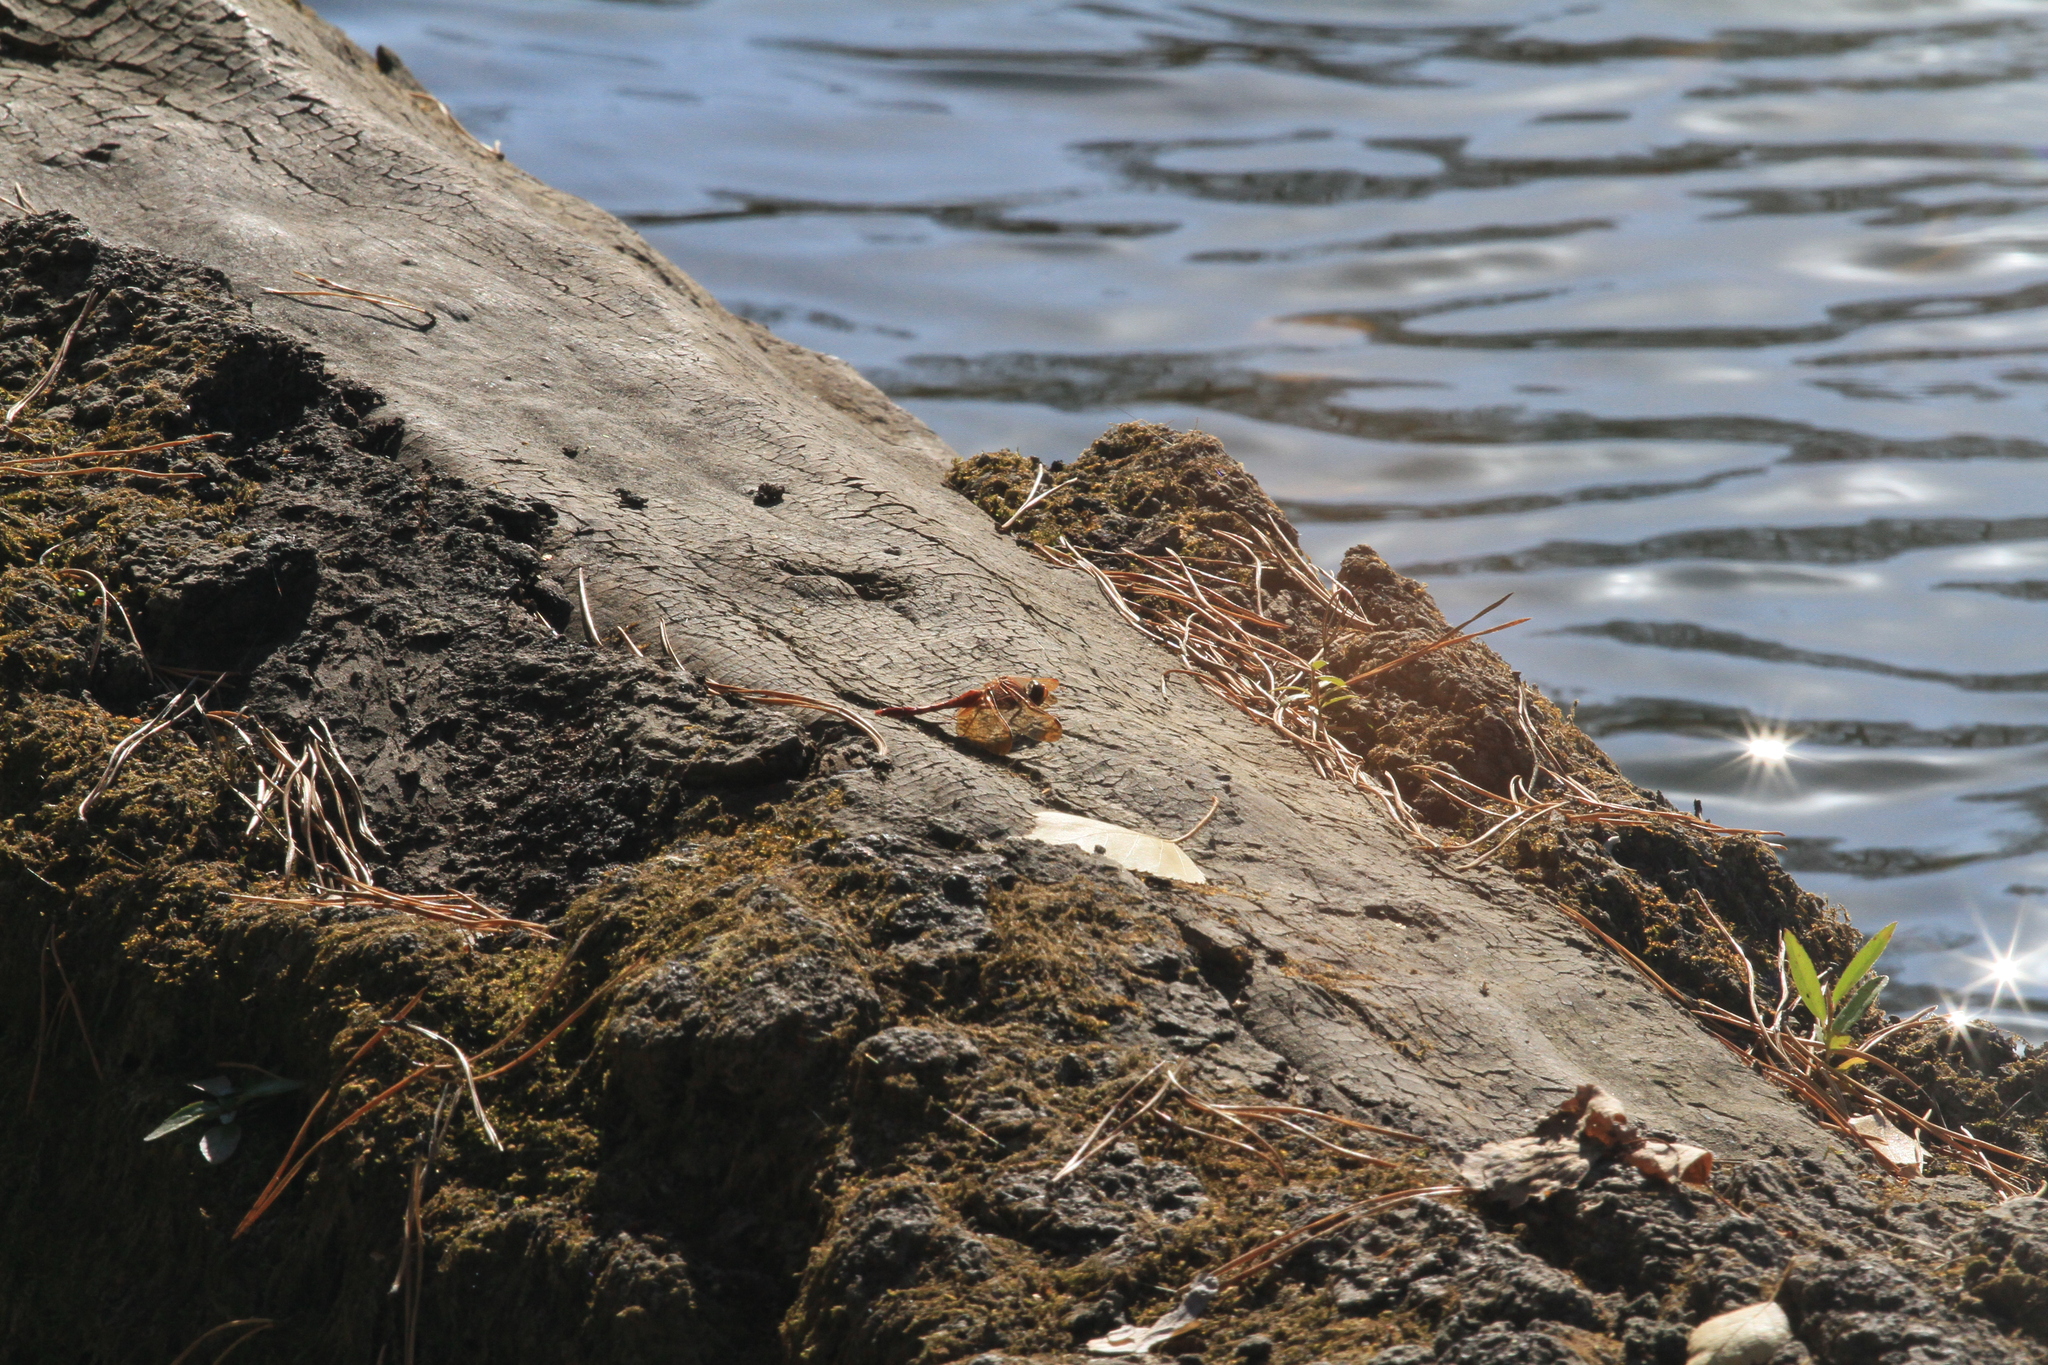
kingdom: Animalia
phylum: Arthropoda
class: Insecta
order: Odonata
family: Libellulidae
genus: Sympetrum
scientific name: Sympetrum croceolum
